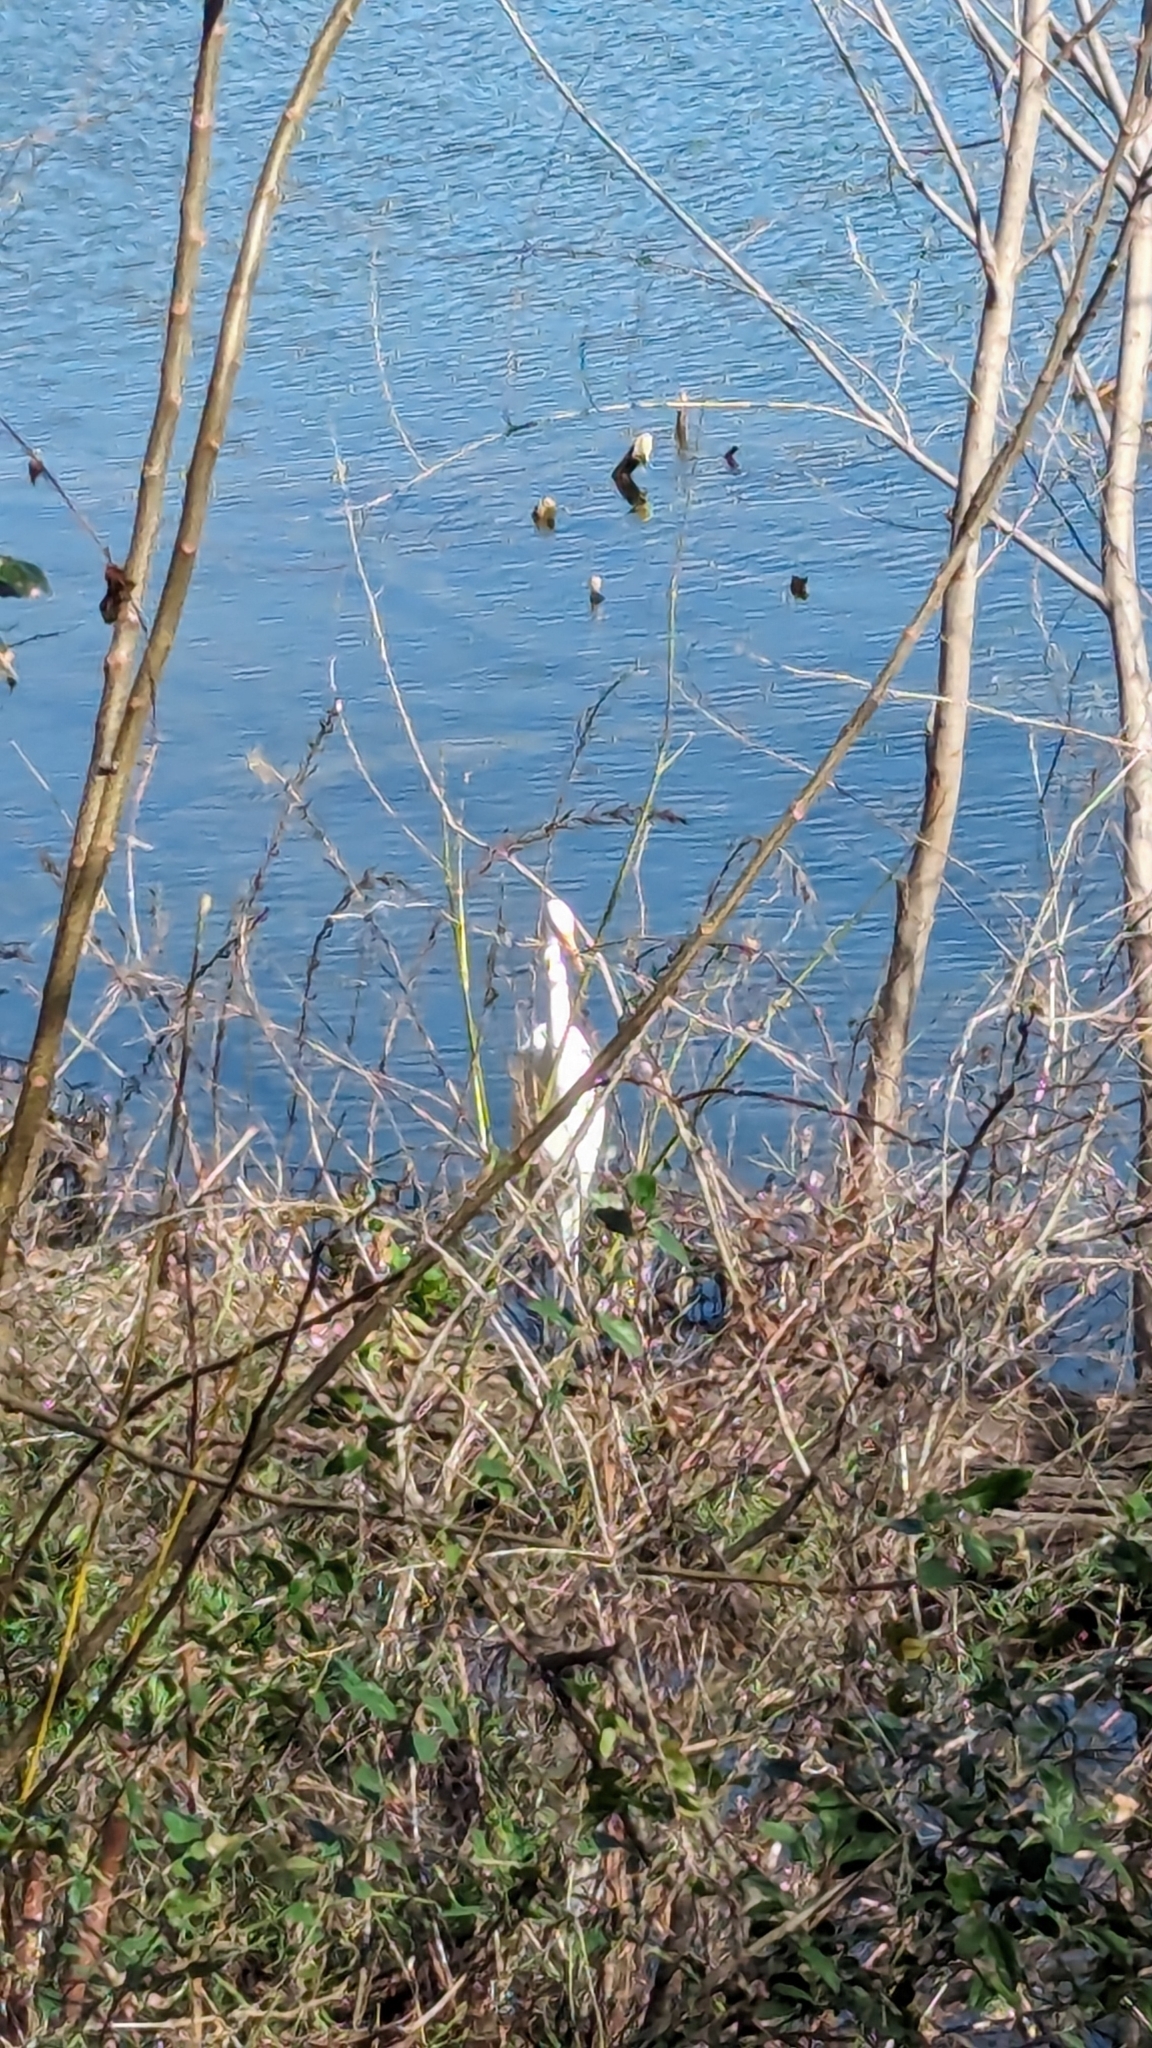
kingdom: Animalia
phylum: Chordata
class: Aves
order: Pelecaniformes
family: Ardeidae
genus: Ardea
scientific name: Ardea alba
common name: Great egret
